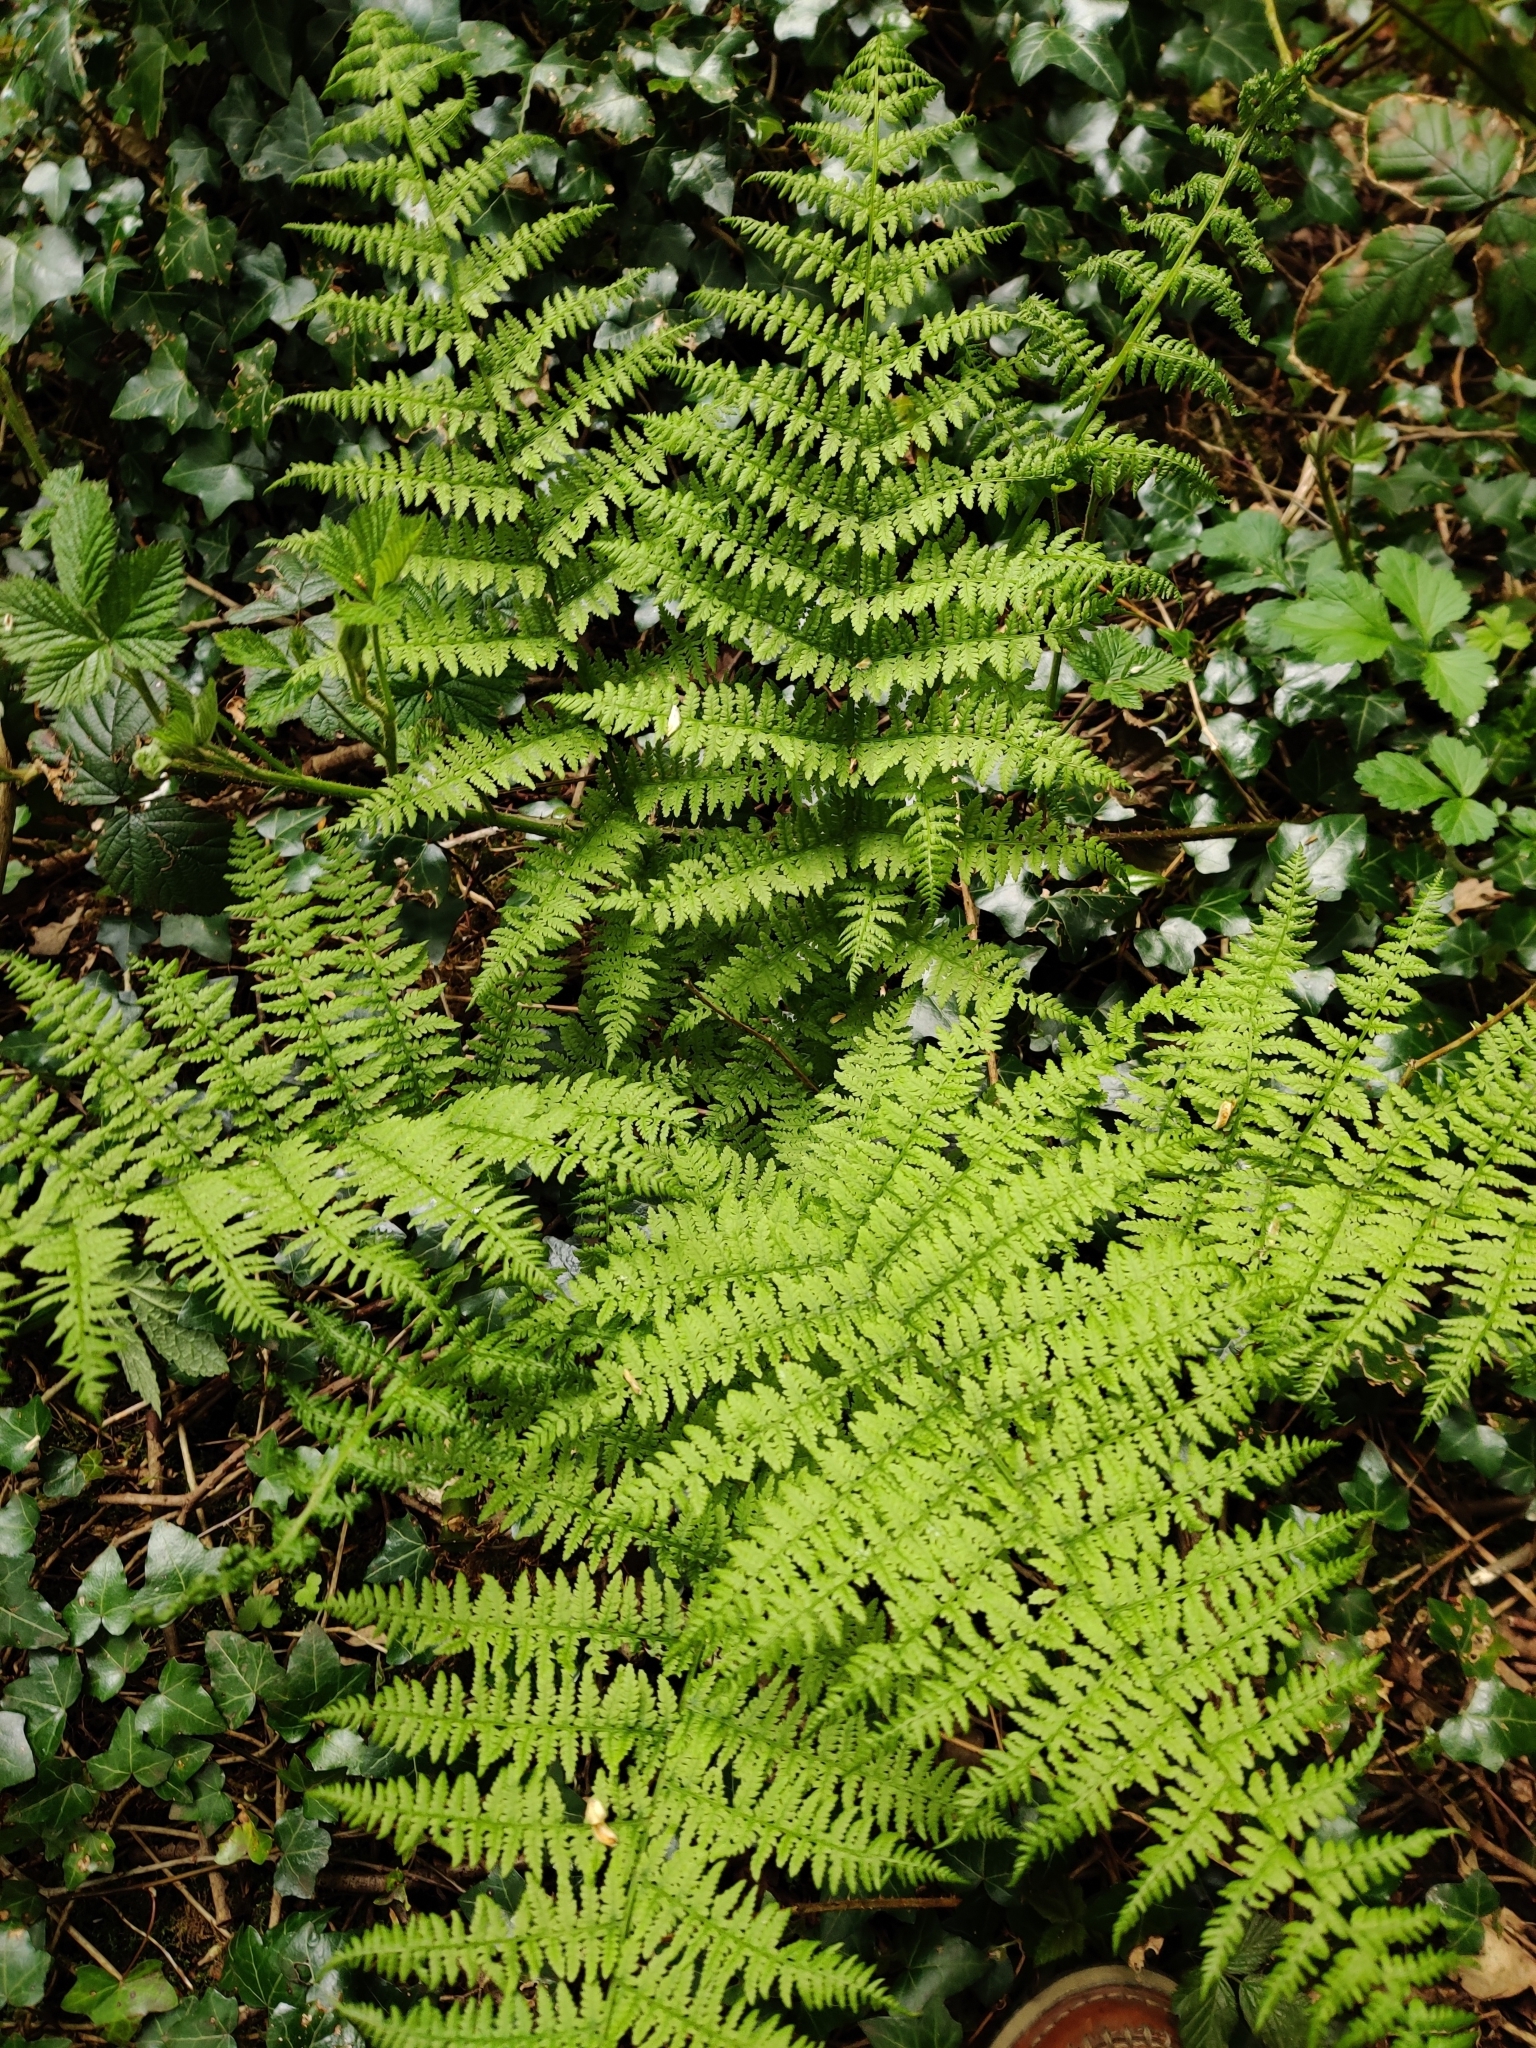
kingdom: Plantae
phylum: Tracheophyta
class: Polypodiopsida
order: Polypodiales
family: Athyriaceae
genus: Athyrium
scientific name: Athyrium filix-femina
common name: Lady fern
